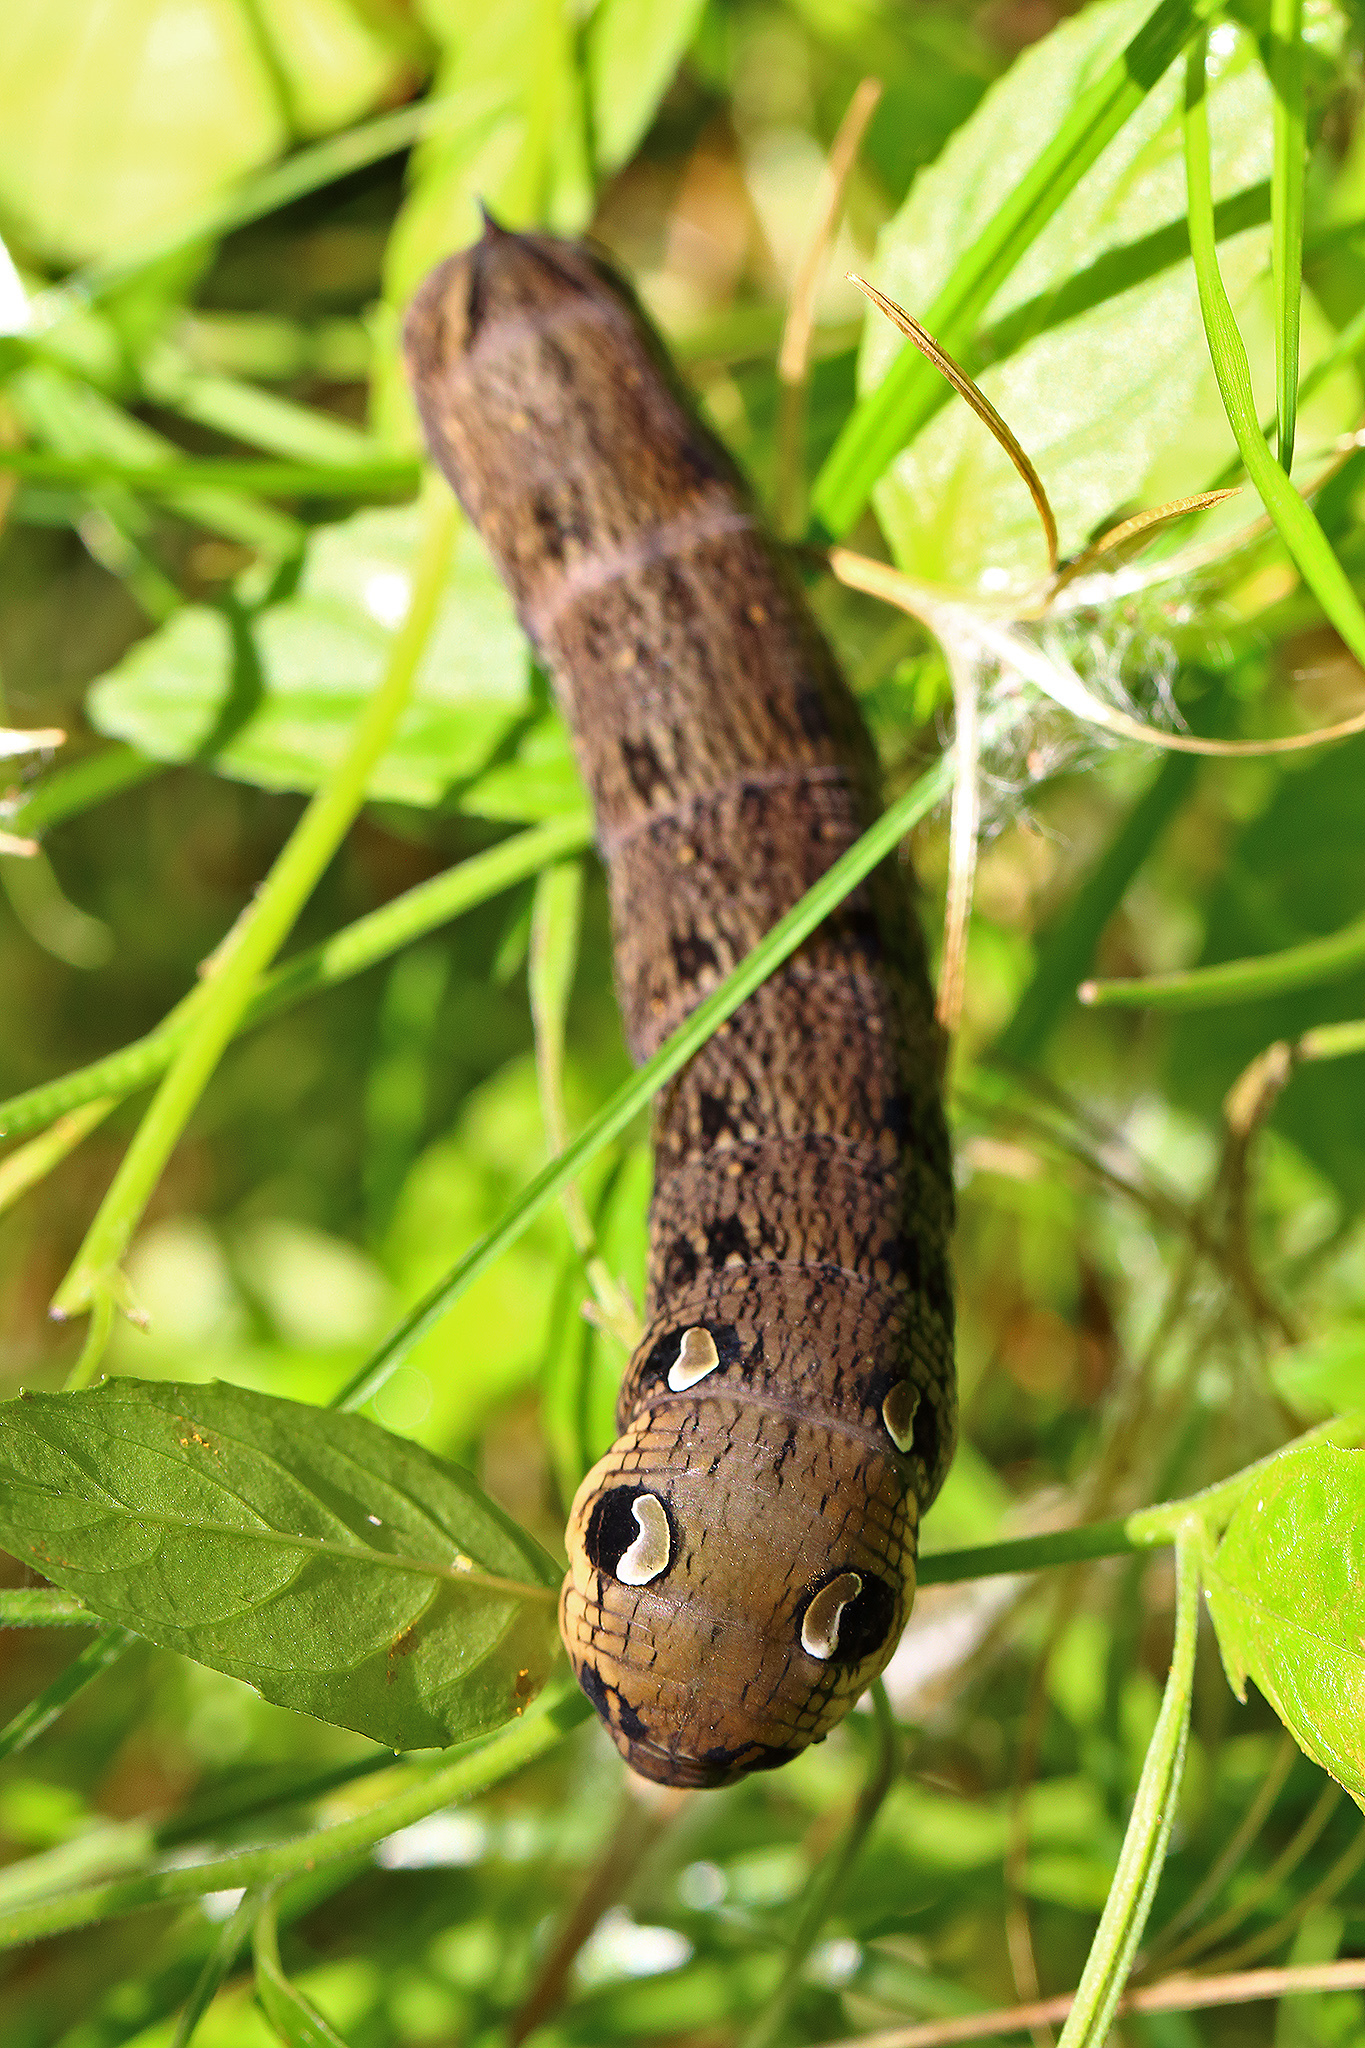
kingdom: Animalia
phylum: Arthropoda
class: Insecta
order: Lepidoptera
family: Sphingidae
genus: Deilephila
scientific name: Deilephila elpenor
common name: Elephant hawk-moth
